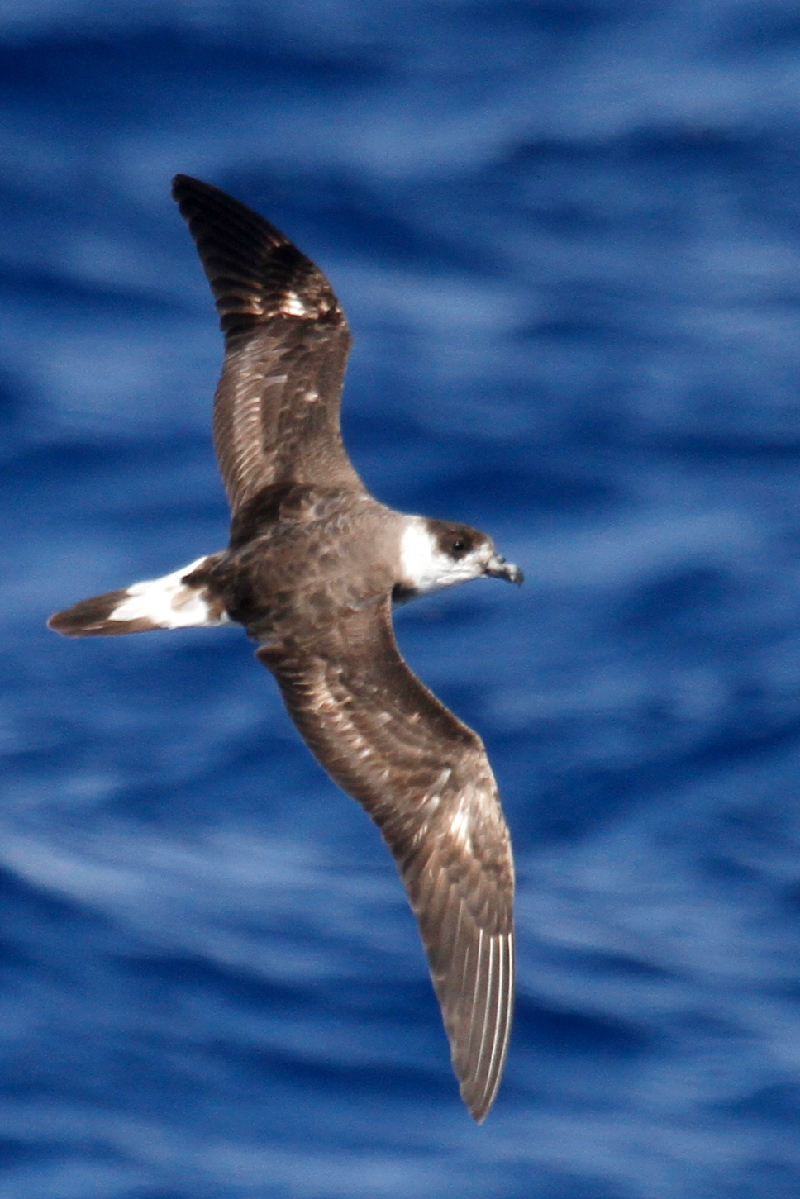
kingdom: Animalia
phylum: Chordata
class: Aves
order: Procellariiformes
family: Procellariidae
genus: Pterodroma
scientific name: Pterodroma hasitata
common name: Black-capped petrel
